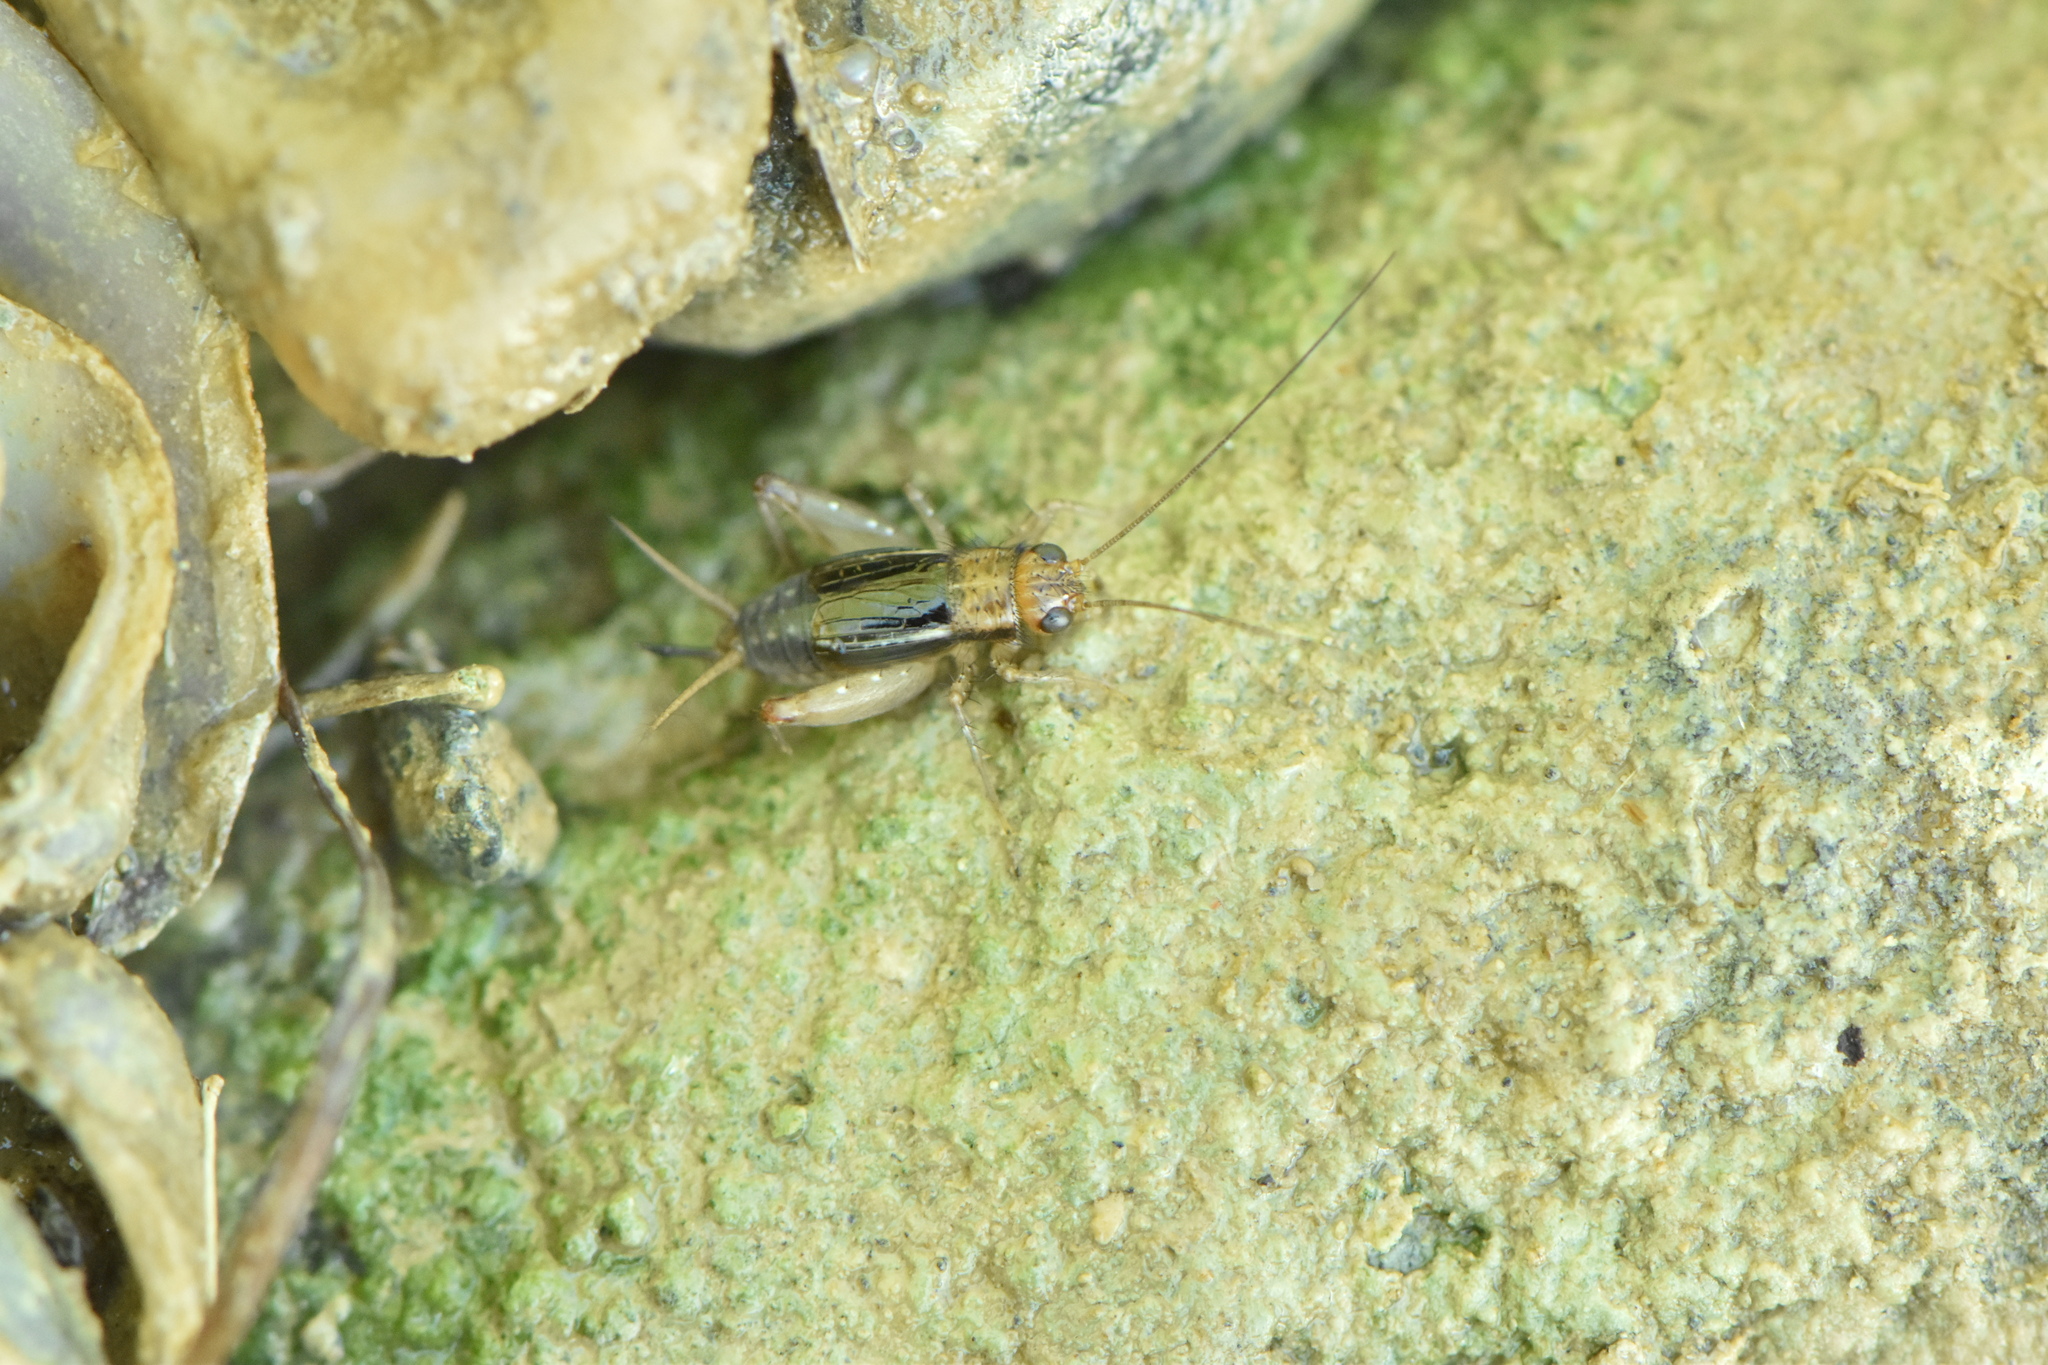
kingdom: Animalia
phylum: Arthropoda
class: Insecta
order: Orthoptera
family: Trigonidiidae
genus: Pteronemobius
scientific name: Pteronemobius lineolatus
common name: Striped marsh-cricket
